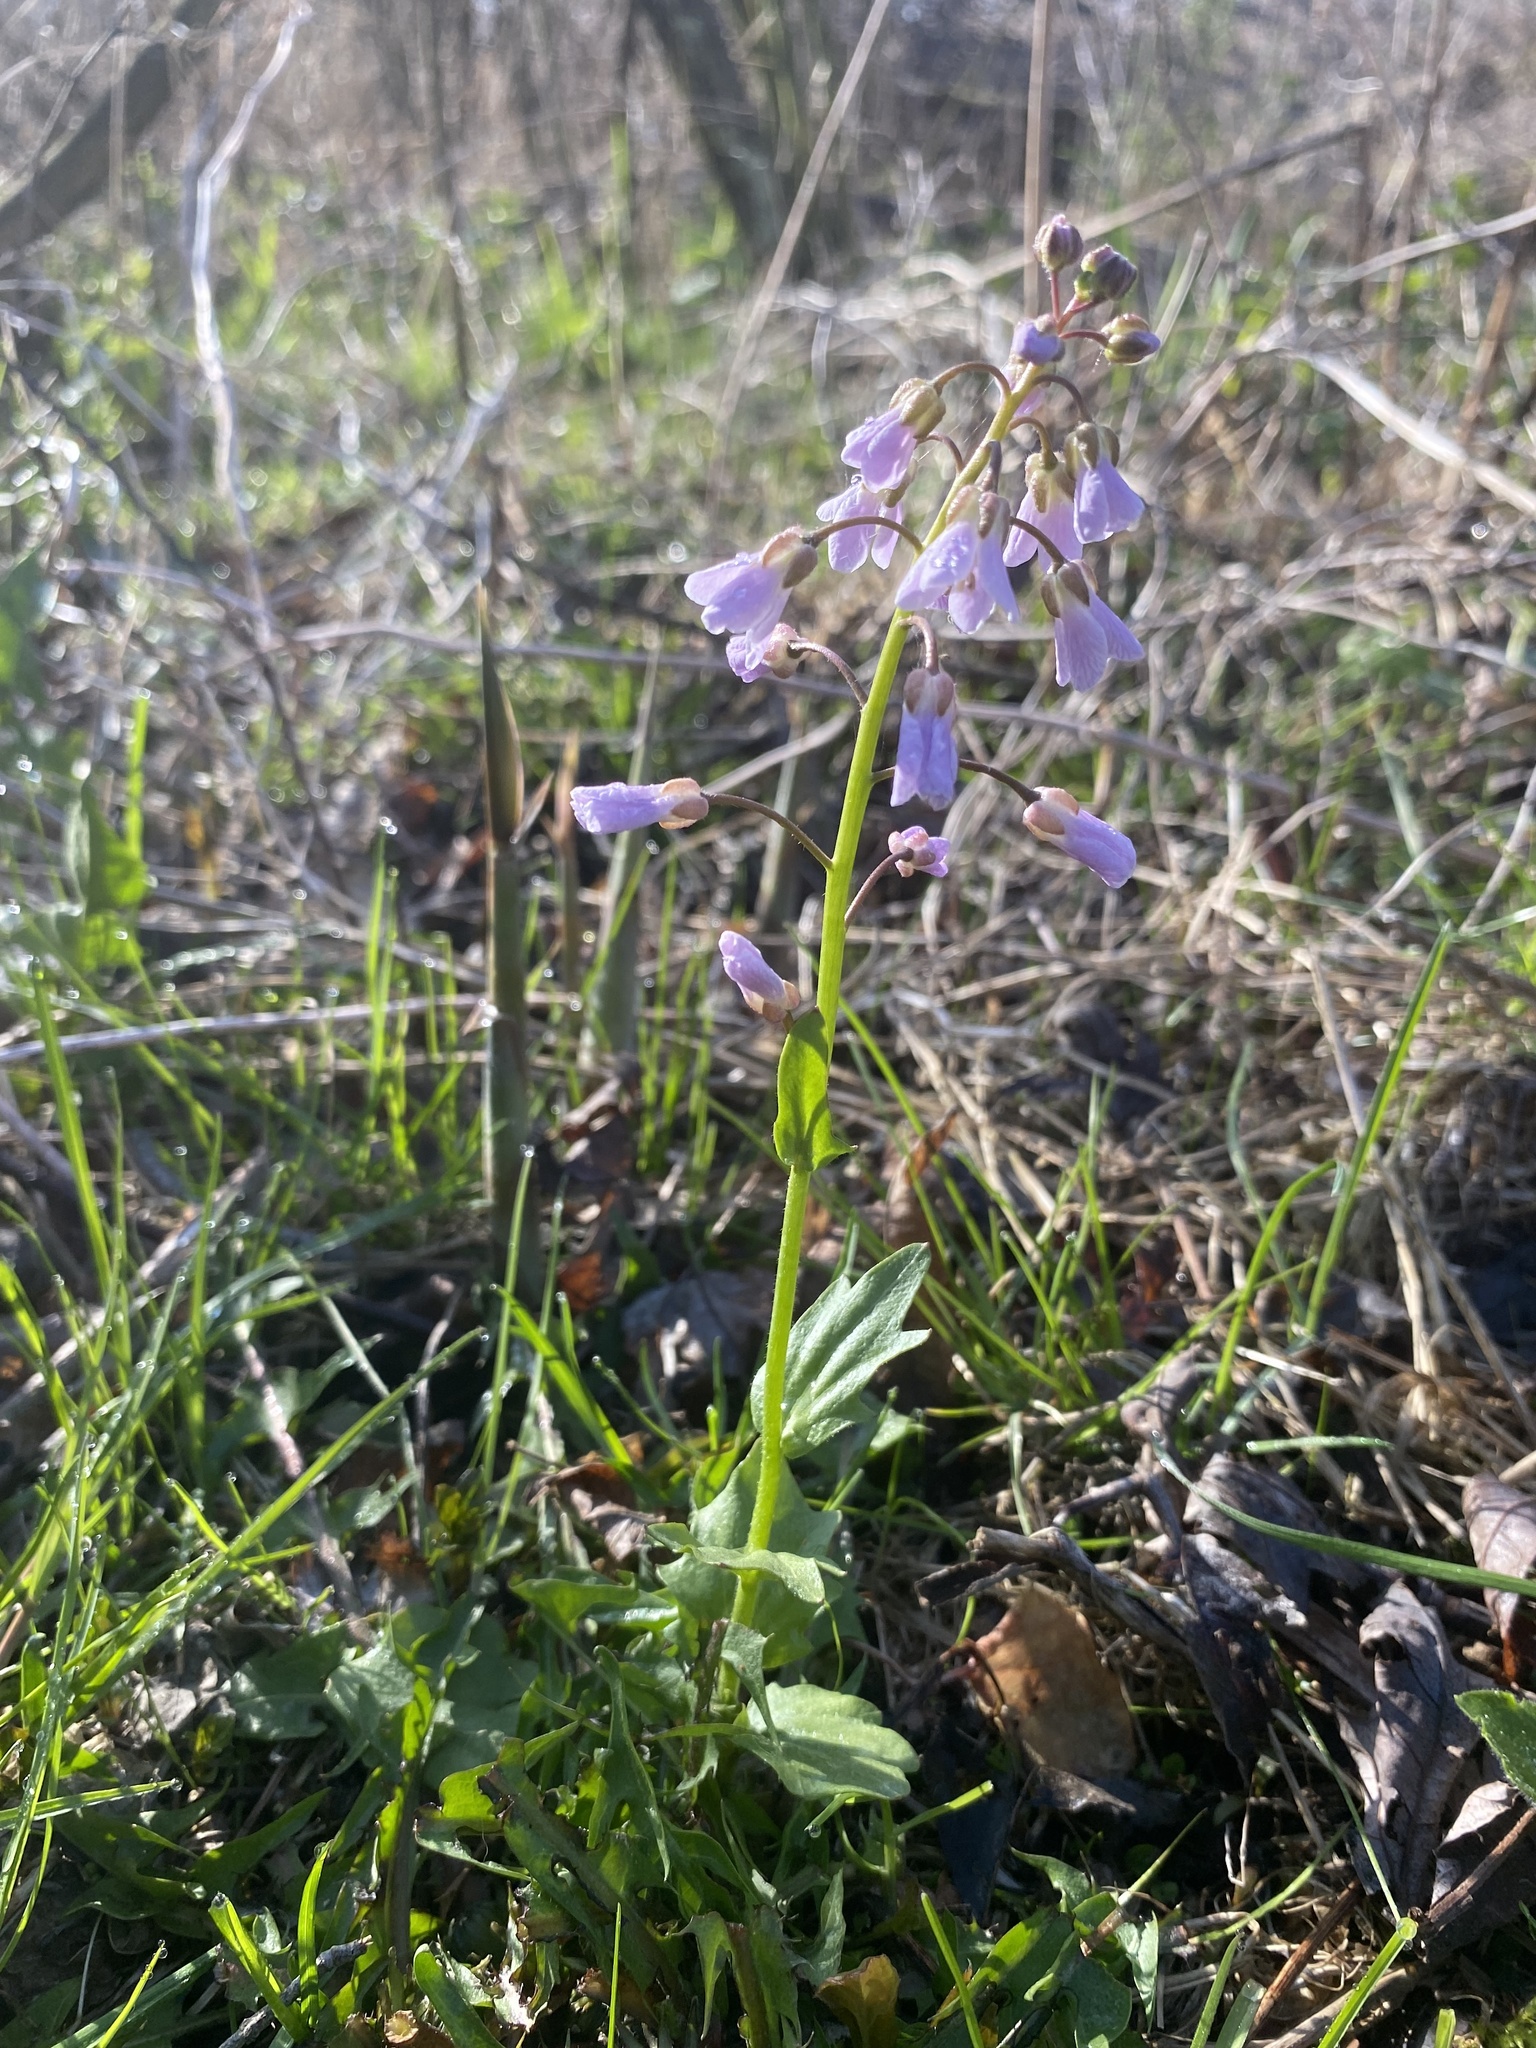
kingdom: Plantae
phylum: Tracheophyta
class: Magnoliopsida
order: Brassicales
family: Brassicaceae
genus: Cardamine
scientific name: Cardamine douglassii
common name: Purple cress
